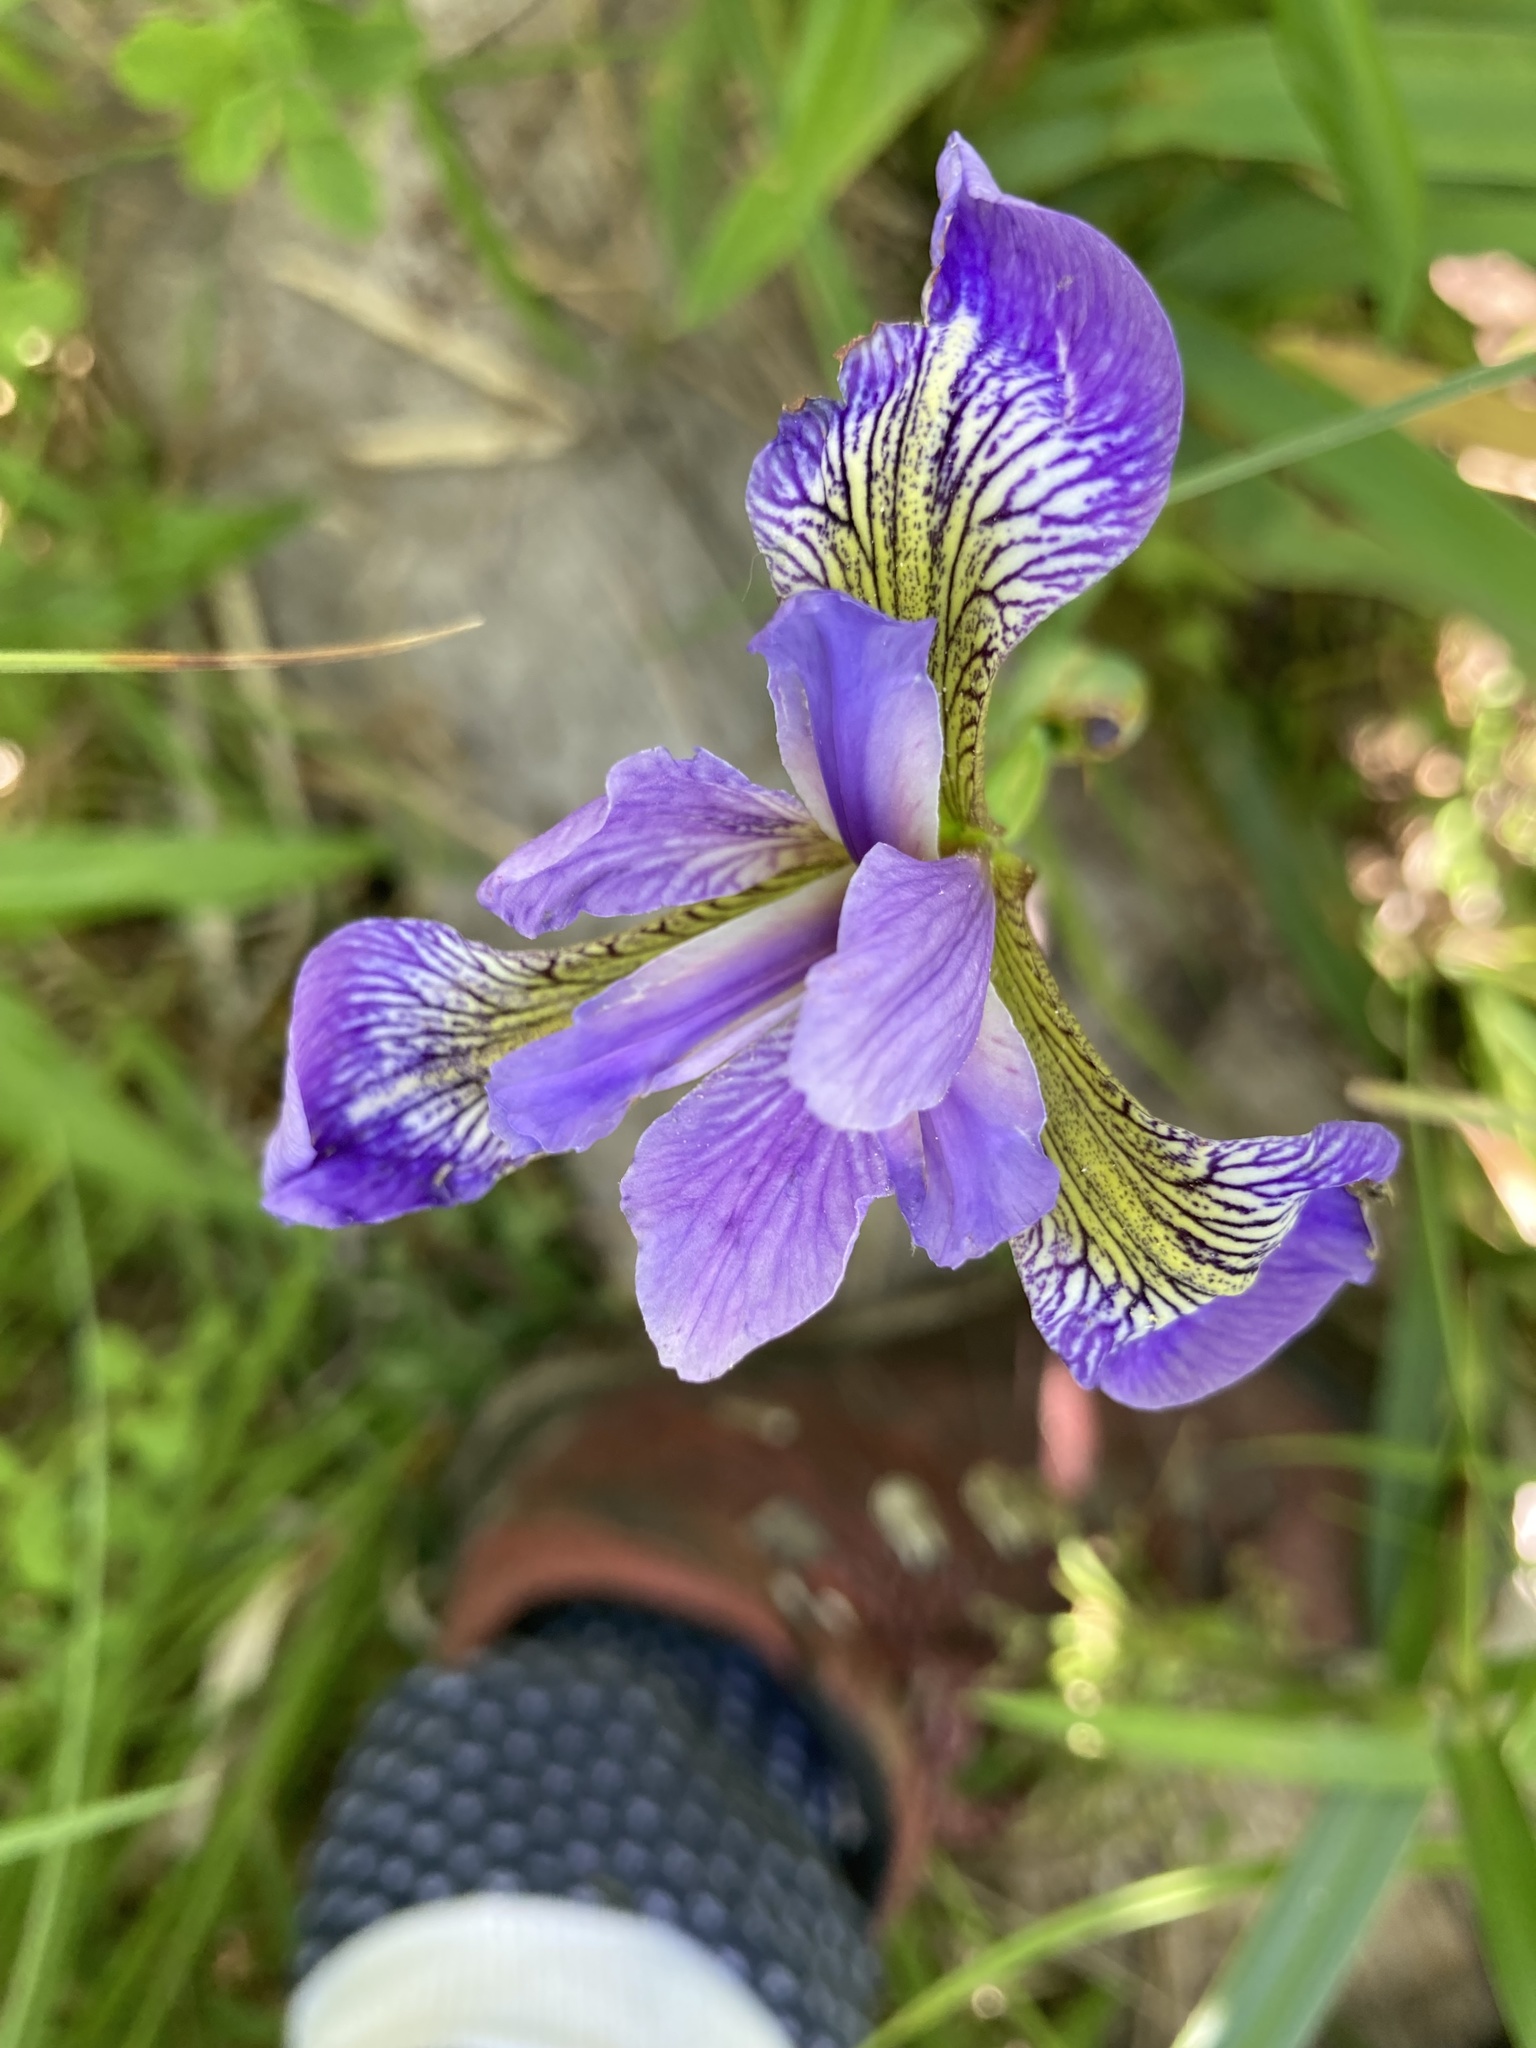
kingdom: Plantae
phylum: Tracheophyta
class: Liliopsida
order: Asparagales
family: Iridaceae
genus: Iris
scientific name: Iris versicolor
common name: Purple iris
